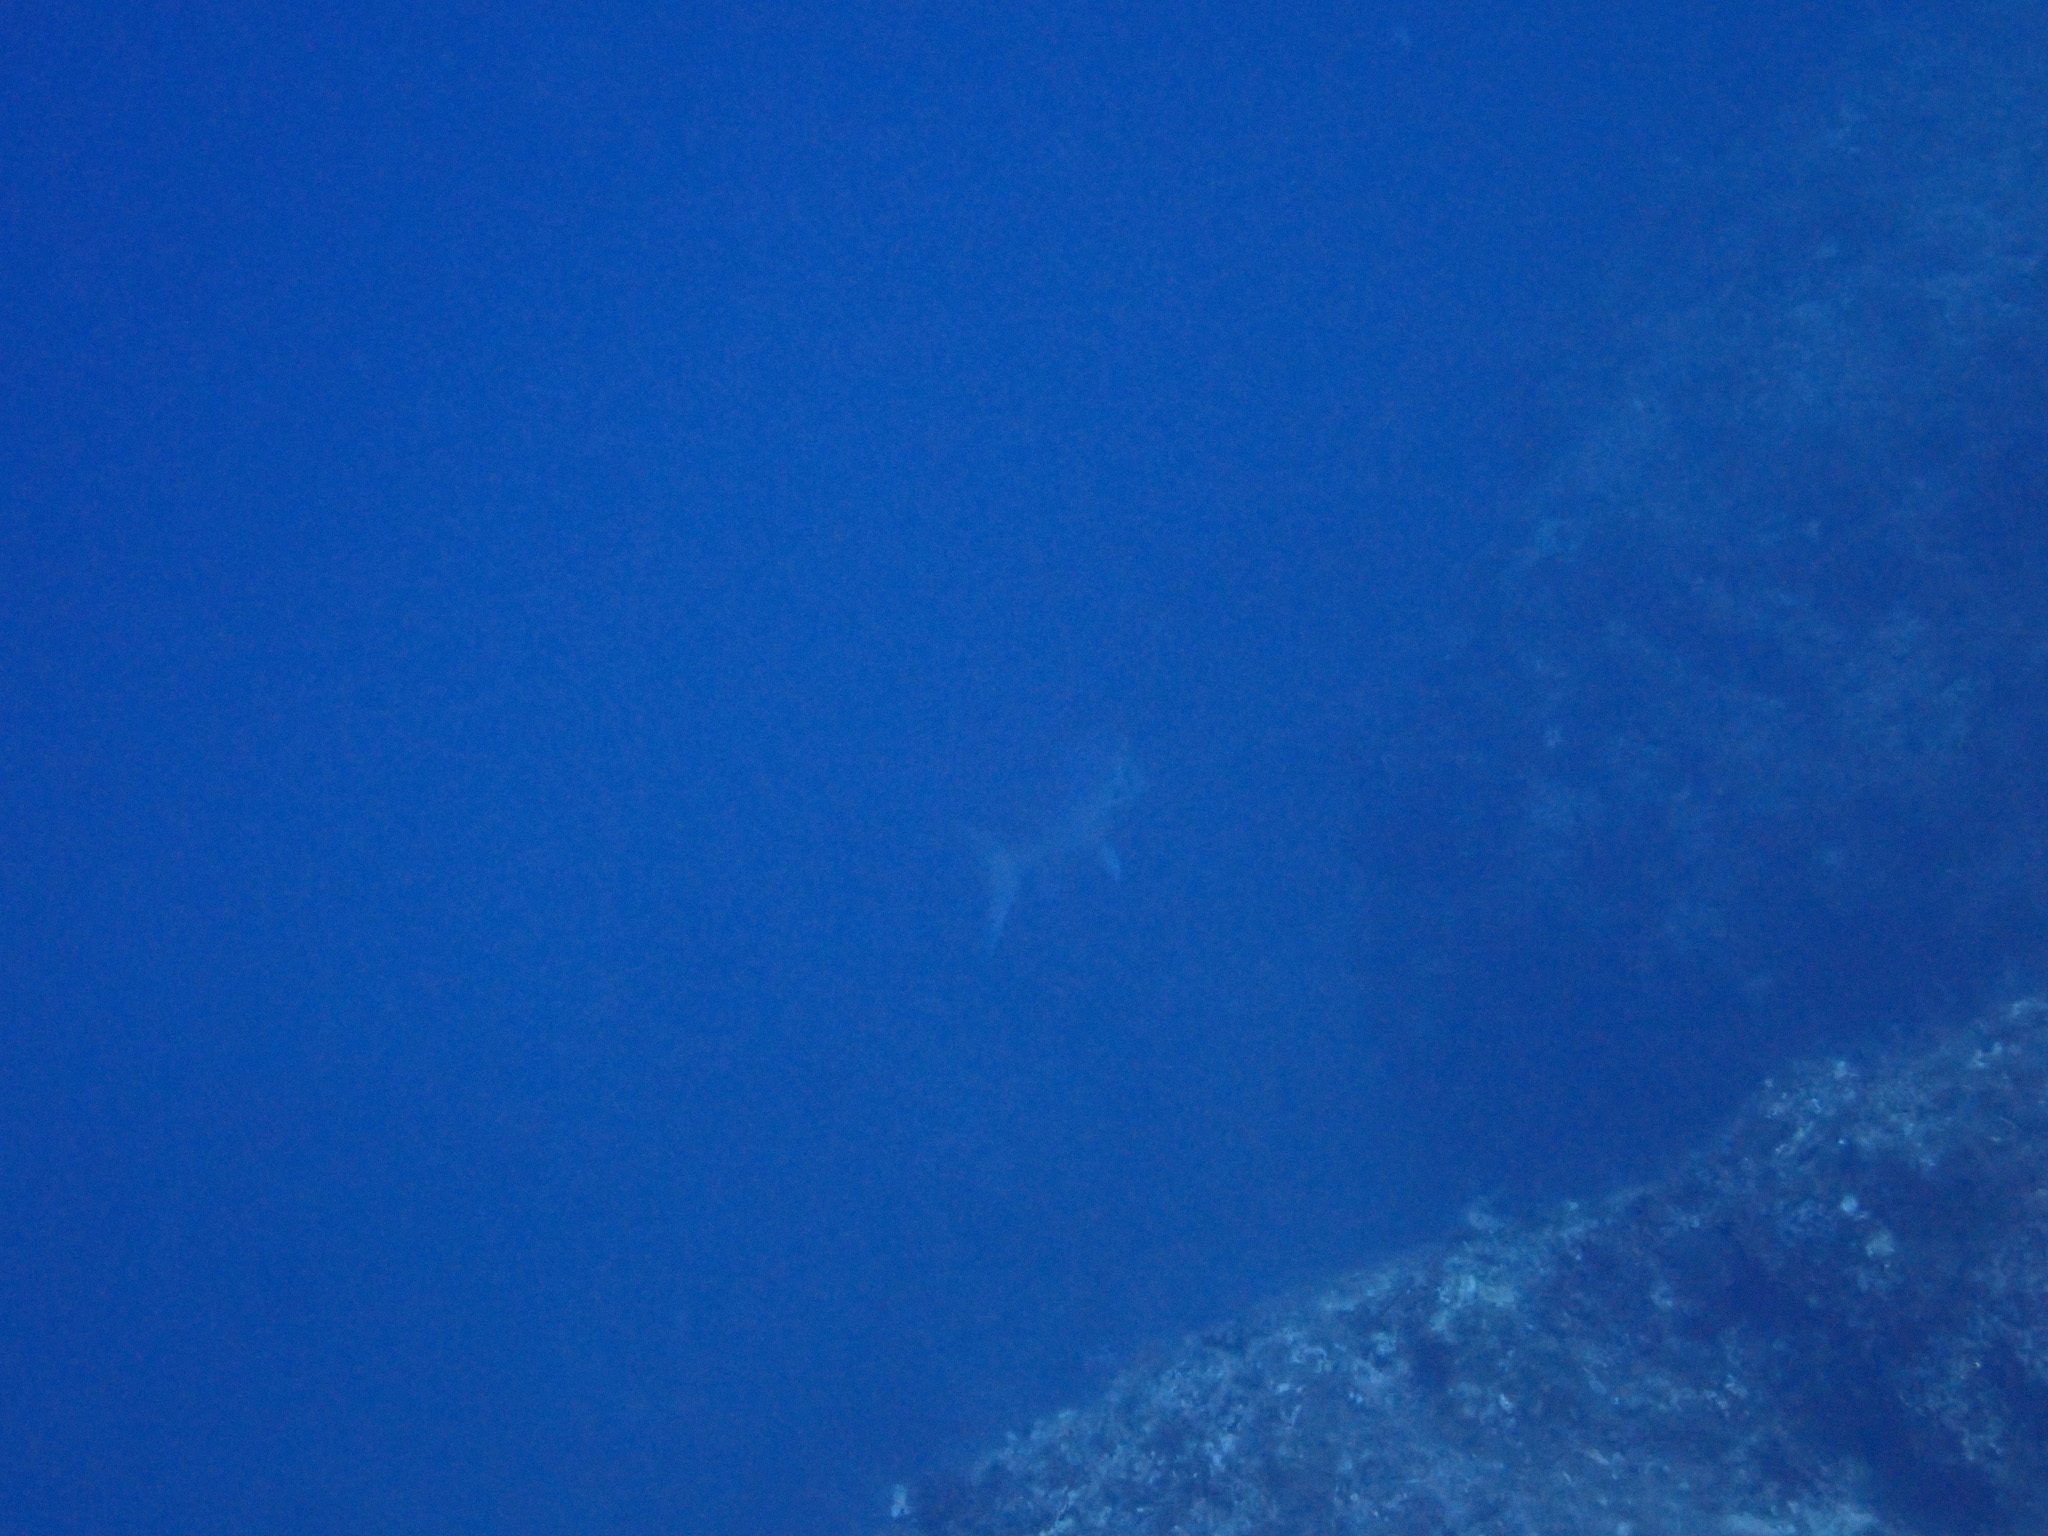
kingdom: Animalia
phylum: Chordata
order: Perciformes
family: Sparidae
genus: Dentex
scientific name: Dentex dentex
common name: Dentex
